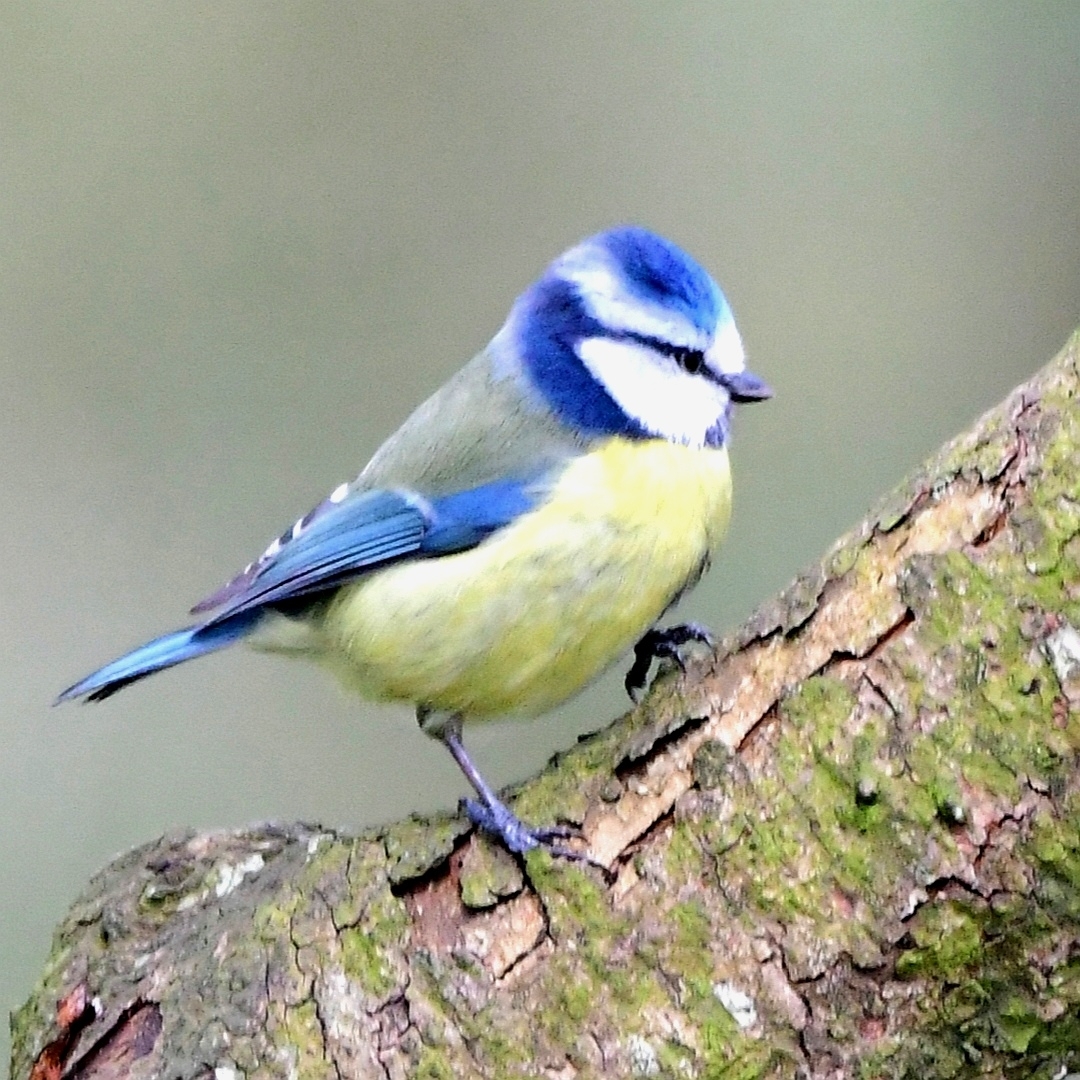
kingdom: Animalia
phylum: Chordata
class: Aves
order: Passeriformes
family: Paridae
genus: Cyanistes
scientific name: Cyanistes caeruleus
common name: Eurasian blue tit
